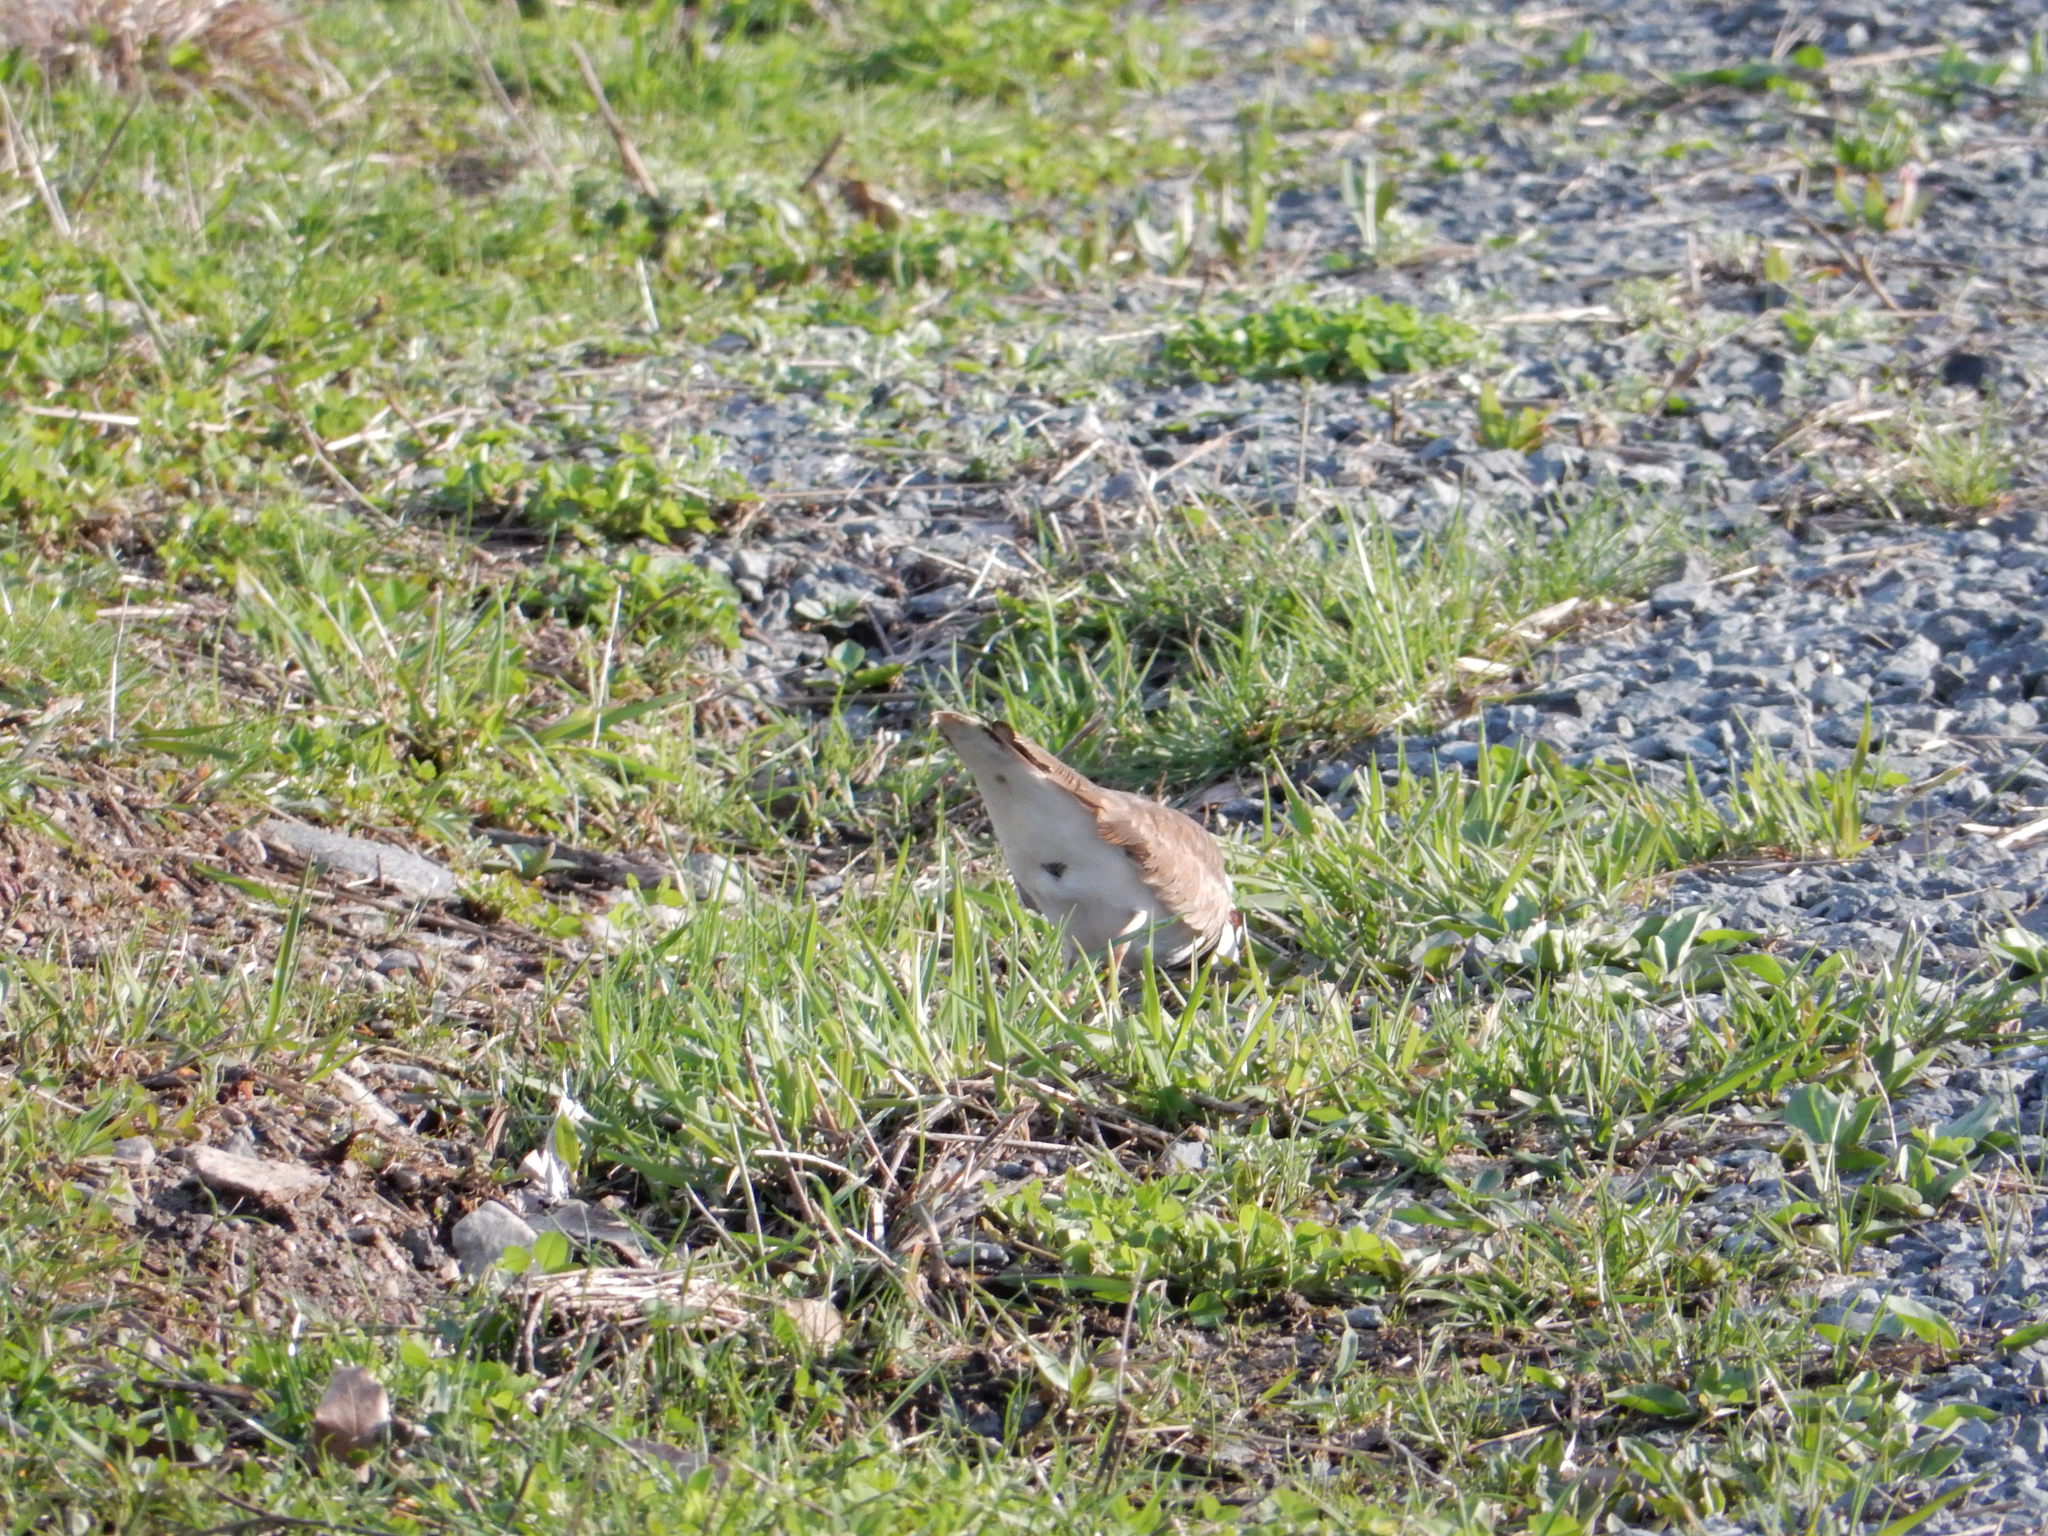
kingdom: Animalia
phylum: Chordata
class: Aves
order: Charadriiformes
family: Charadriidae
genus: Charadrius
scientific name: Charadrius vociferus
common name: Killdeer
